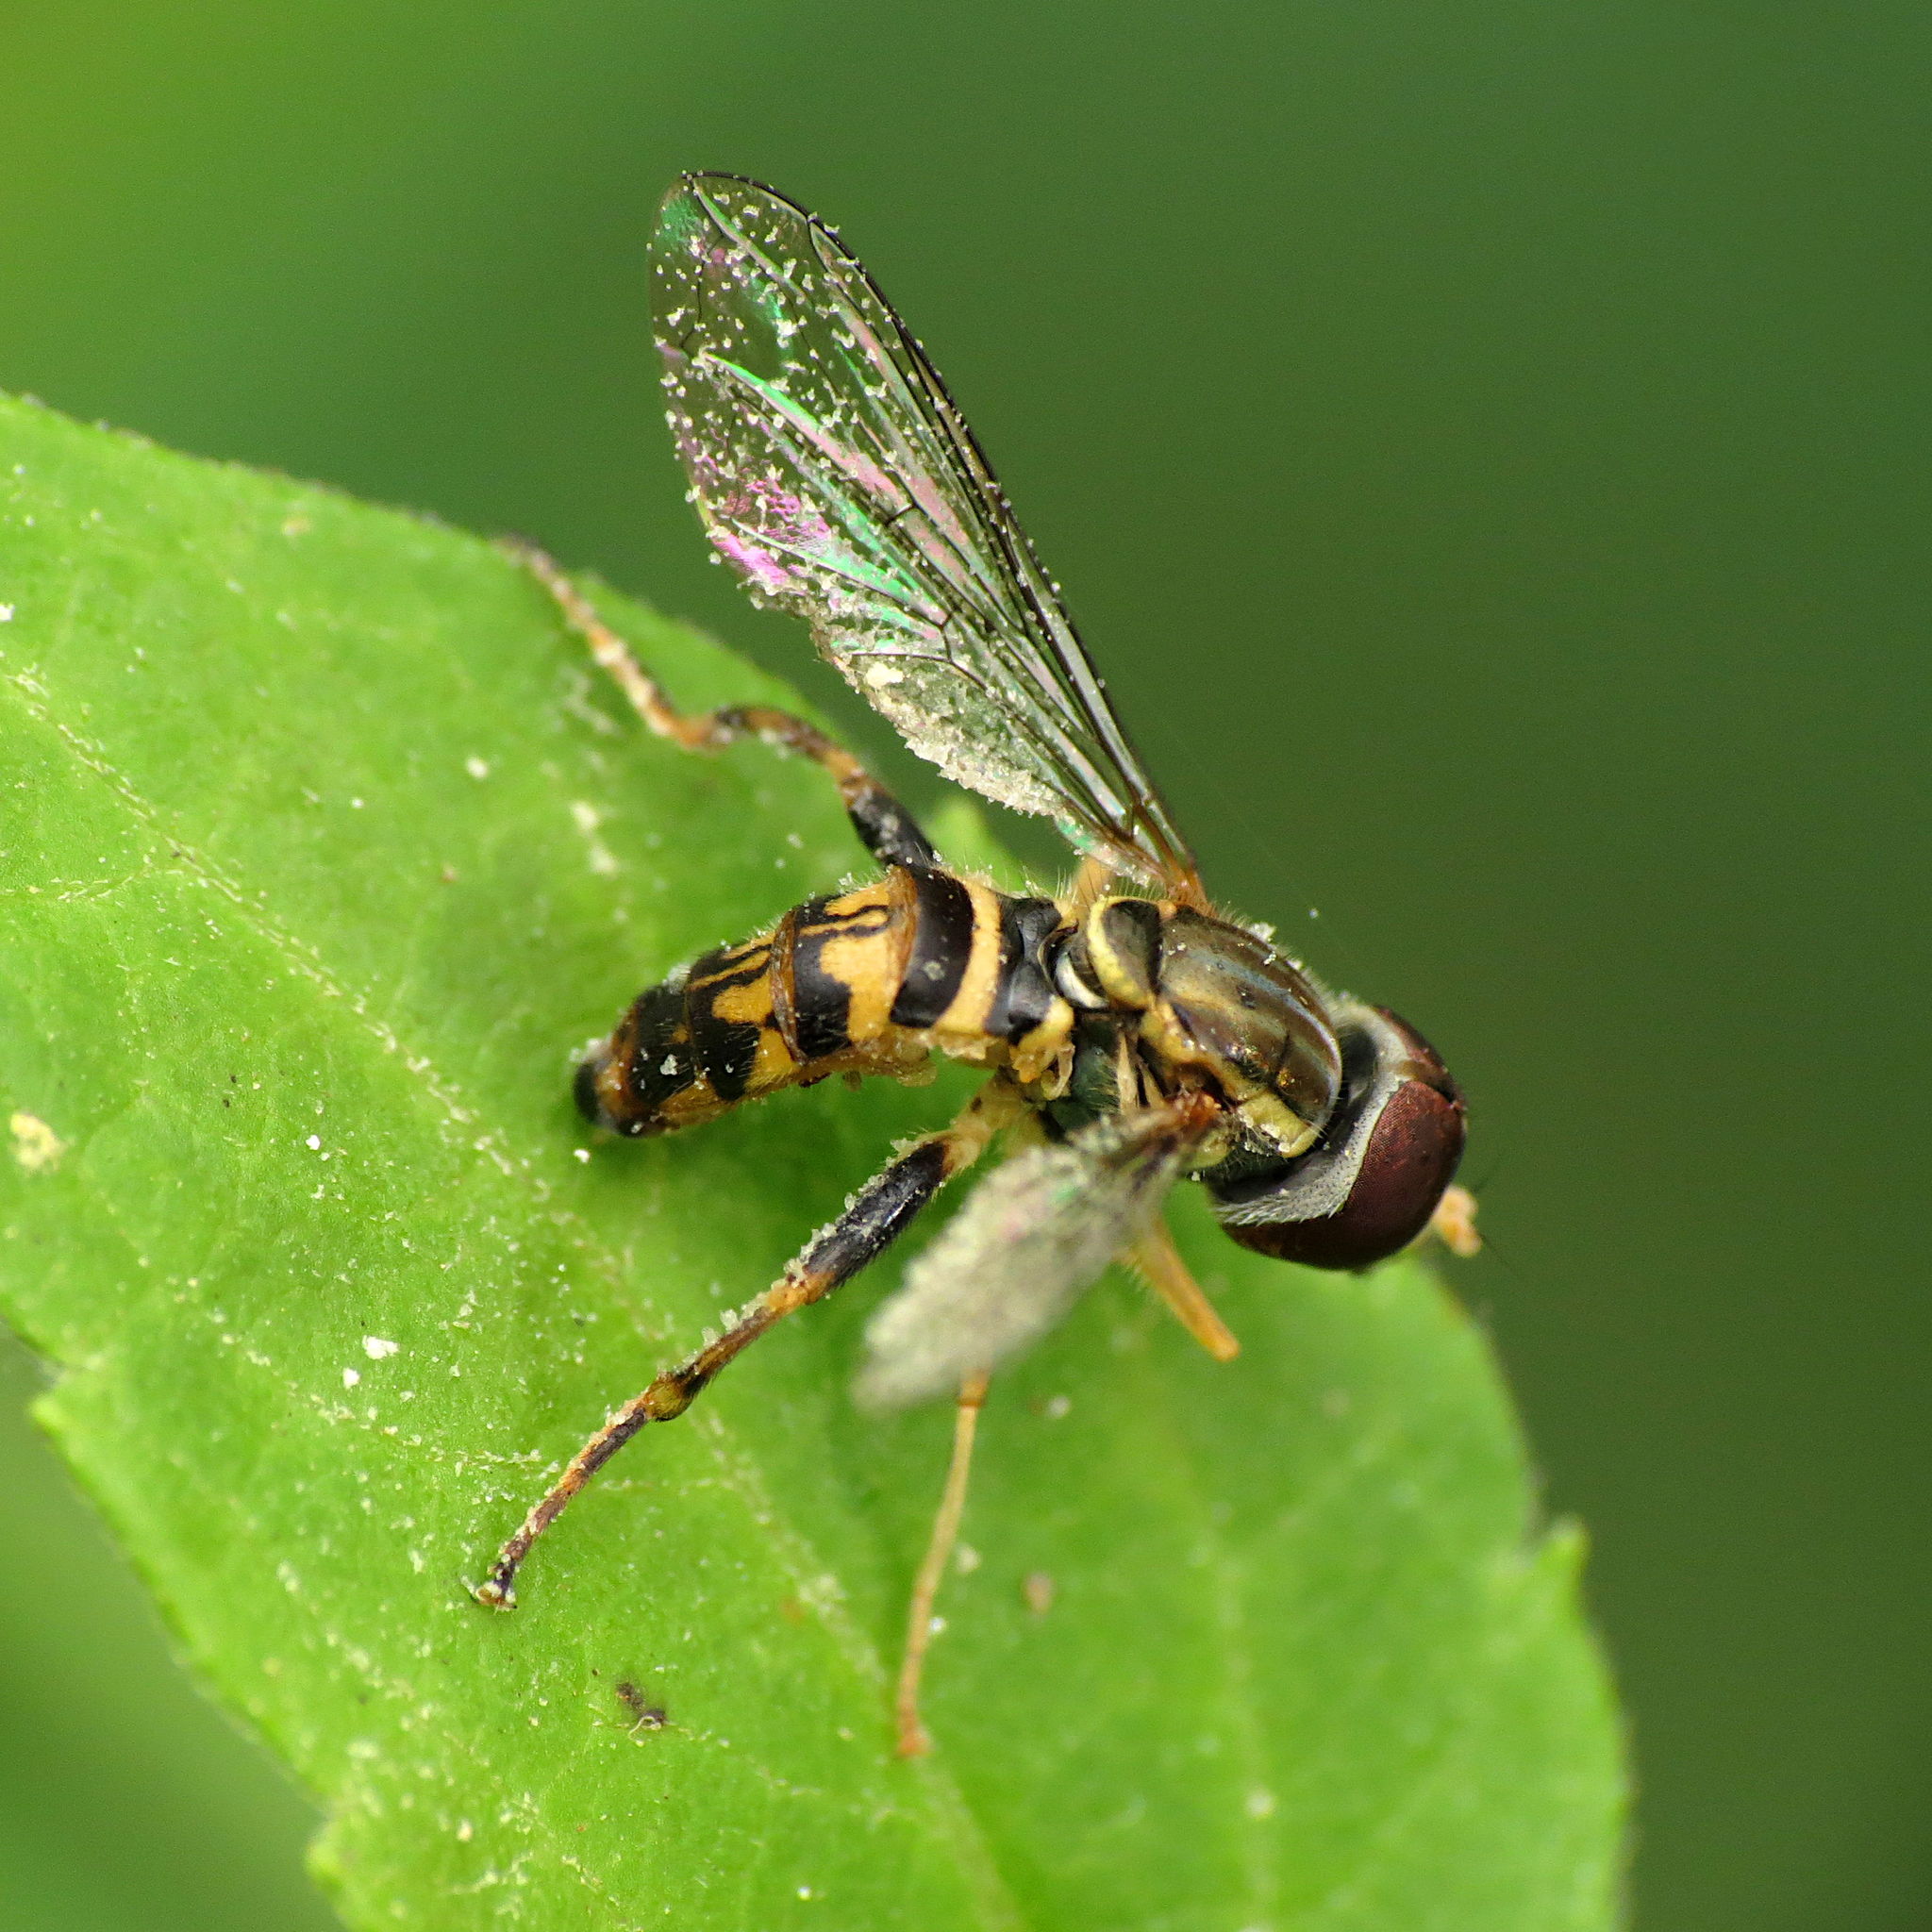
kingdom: Animalia
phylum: Arthropoda
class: Insecta
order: Diptera
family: Syrphidae
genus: Toxomerus
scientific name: Toxomerus geminatus
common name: Eastern calligrapher
